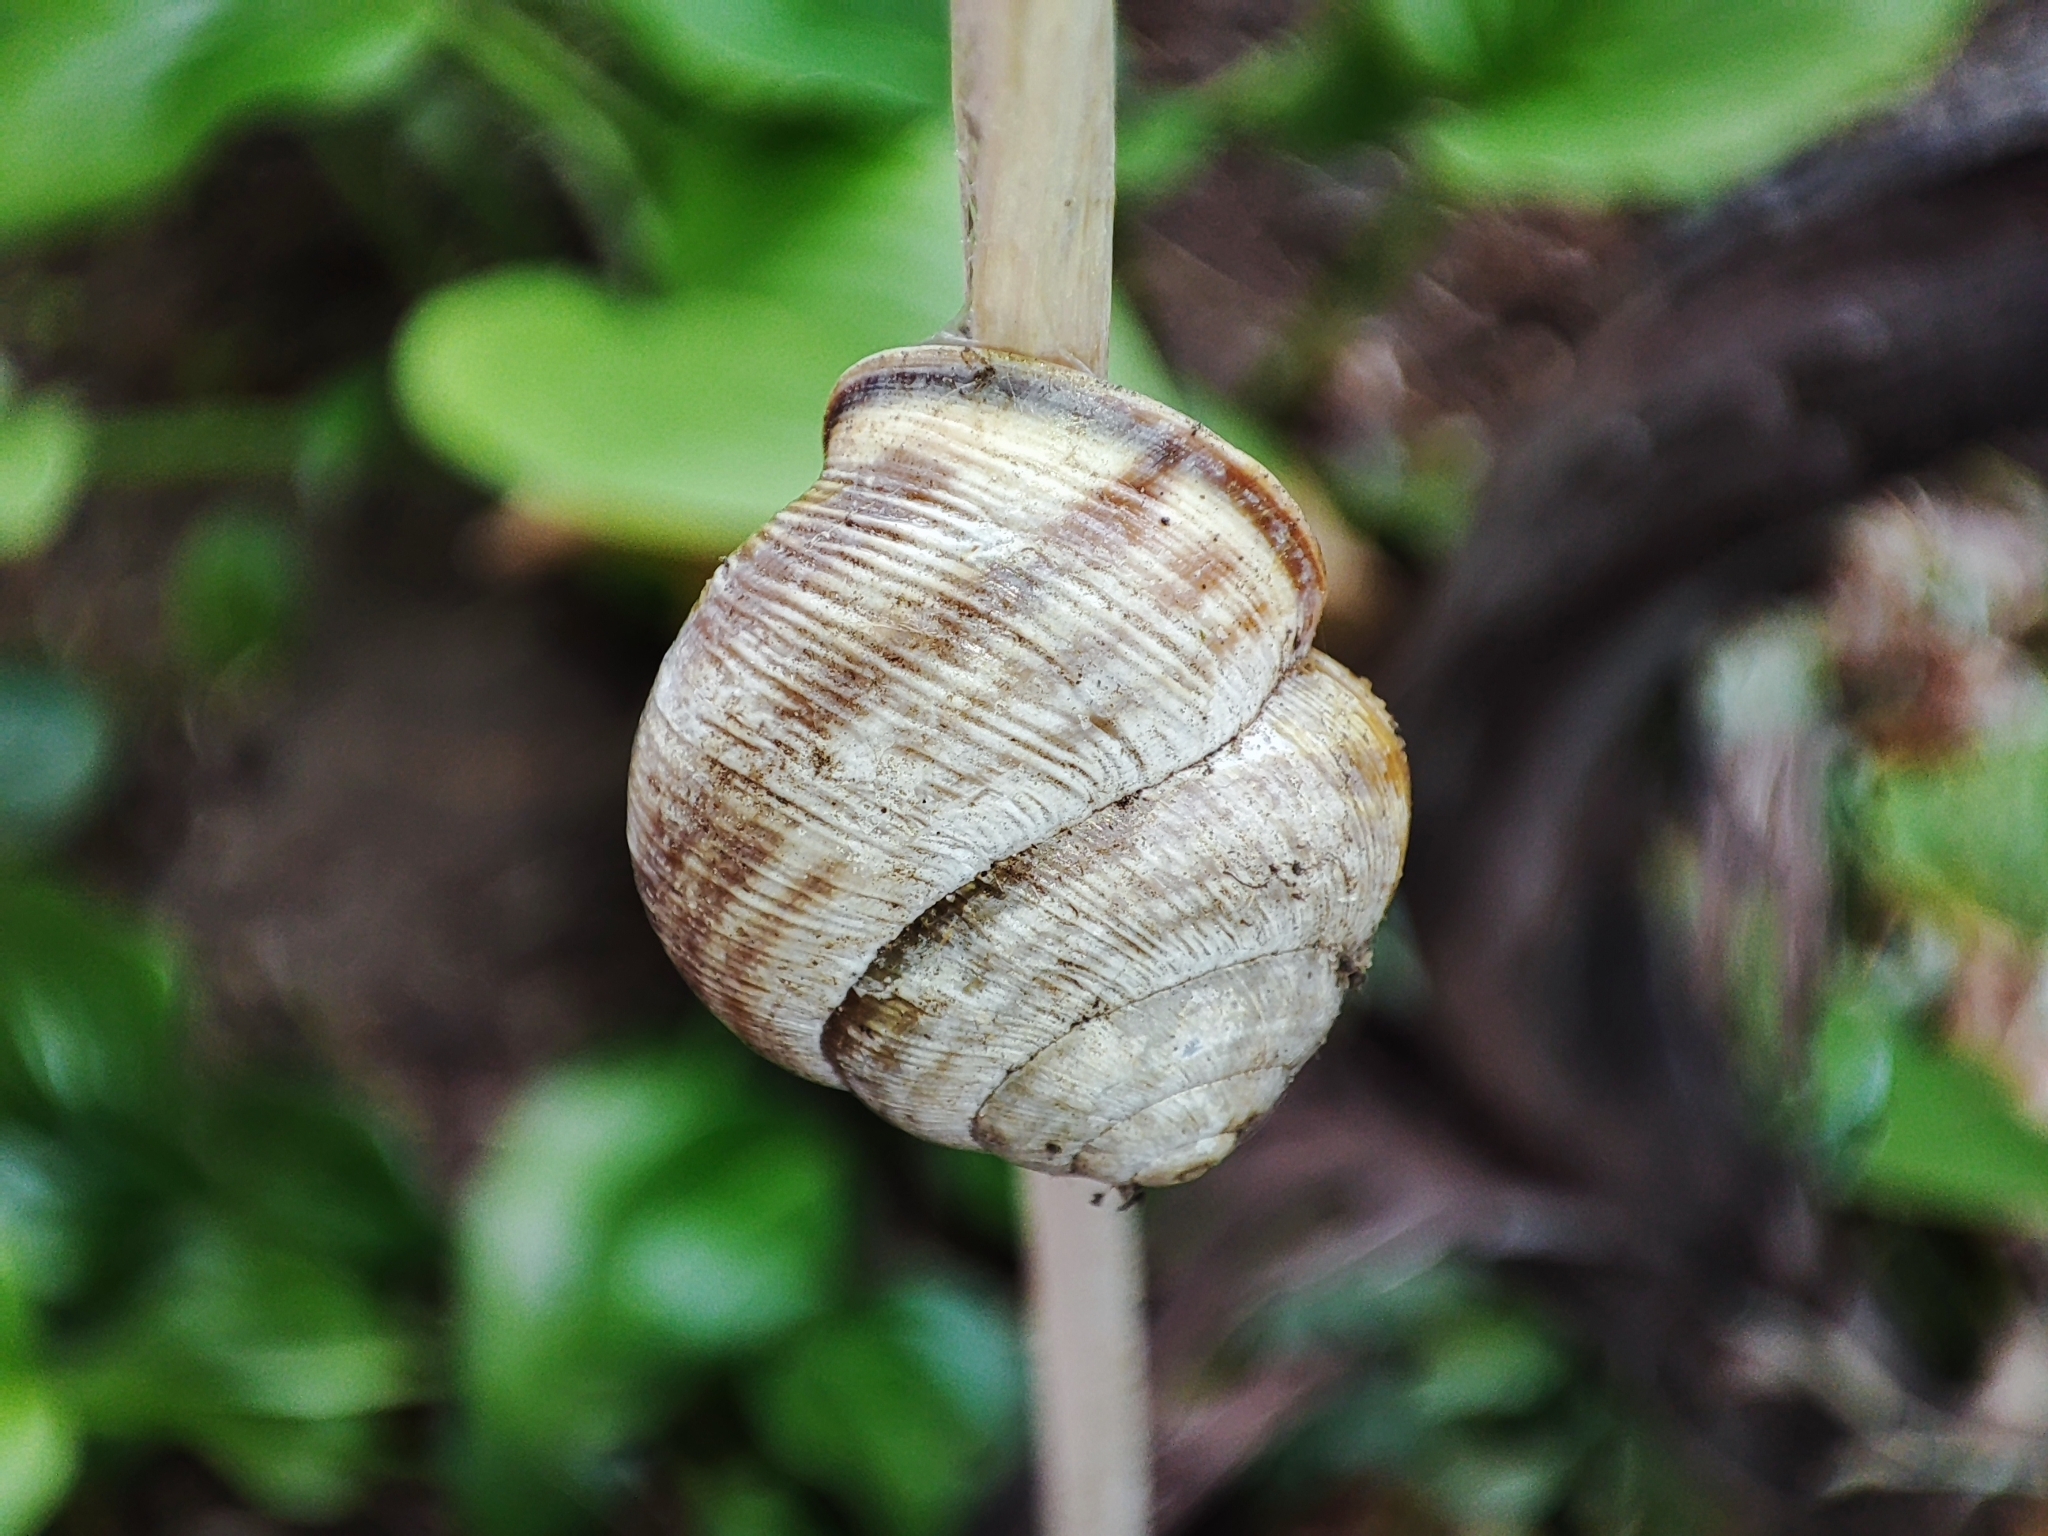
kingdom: Animalia
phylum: Mollusca
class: Gastropoda
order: Stylommatophora
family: Helicidae
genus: Caucasotachea
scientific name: Caucasotachea vindobonensis
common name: European helicid land snail
